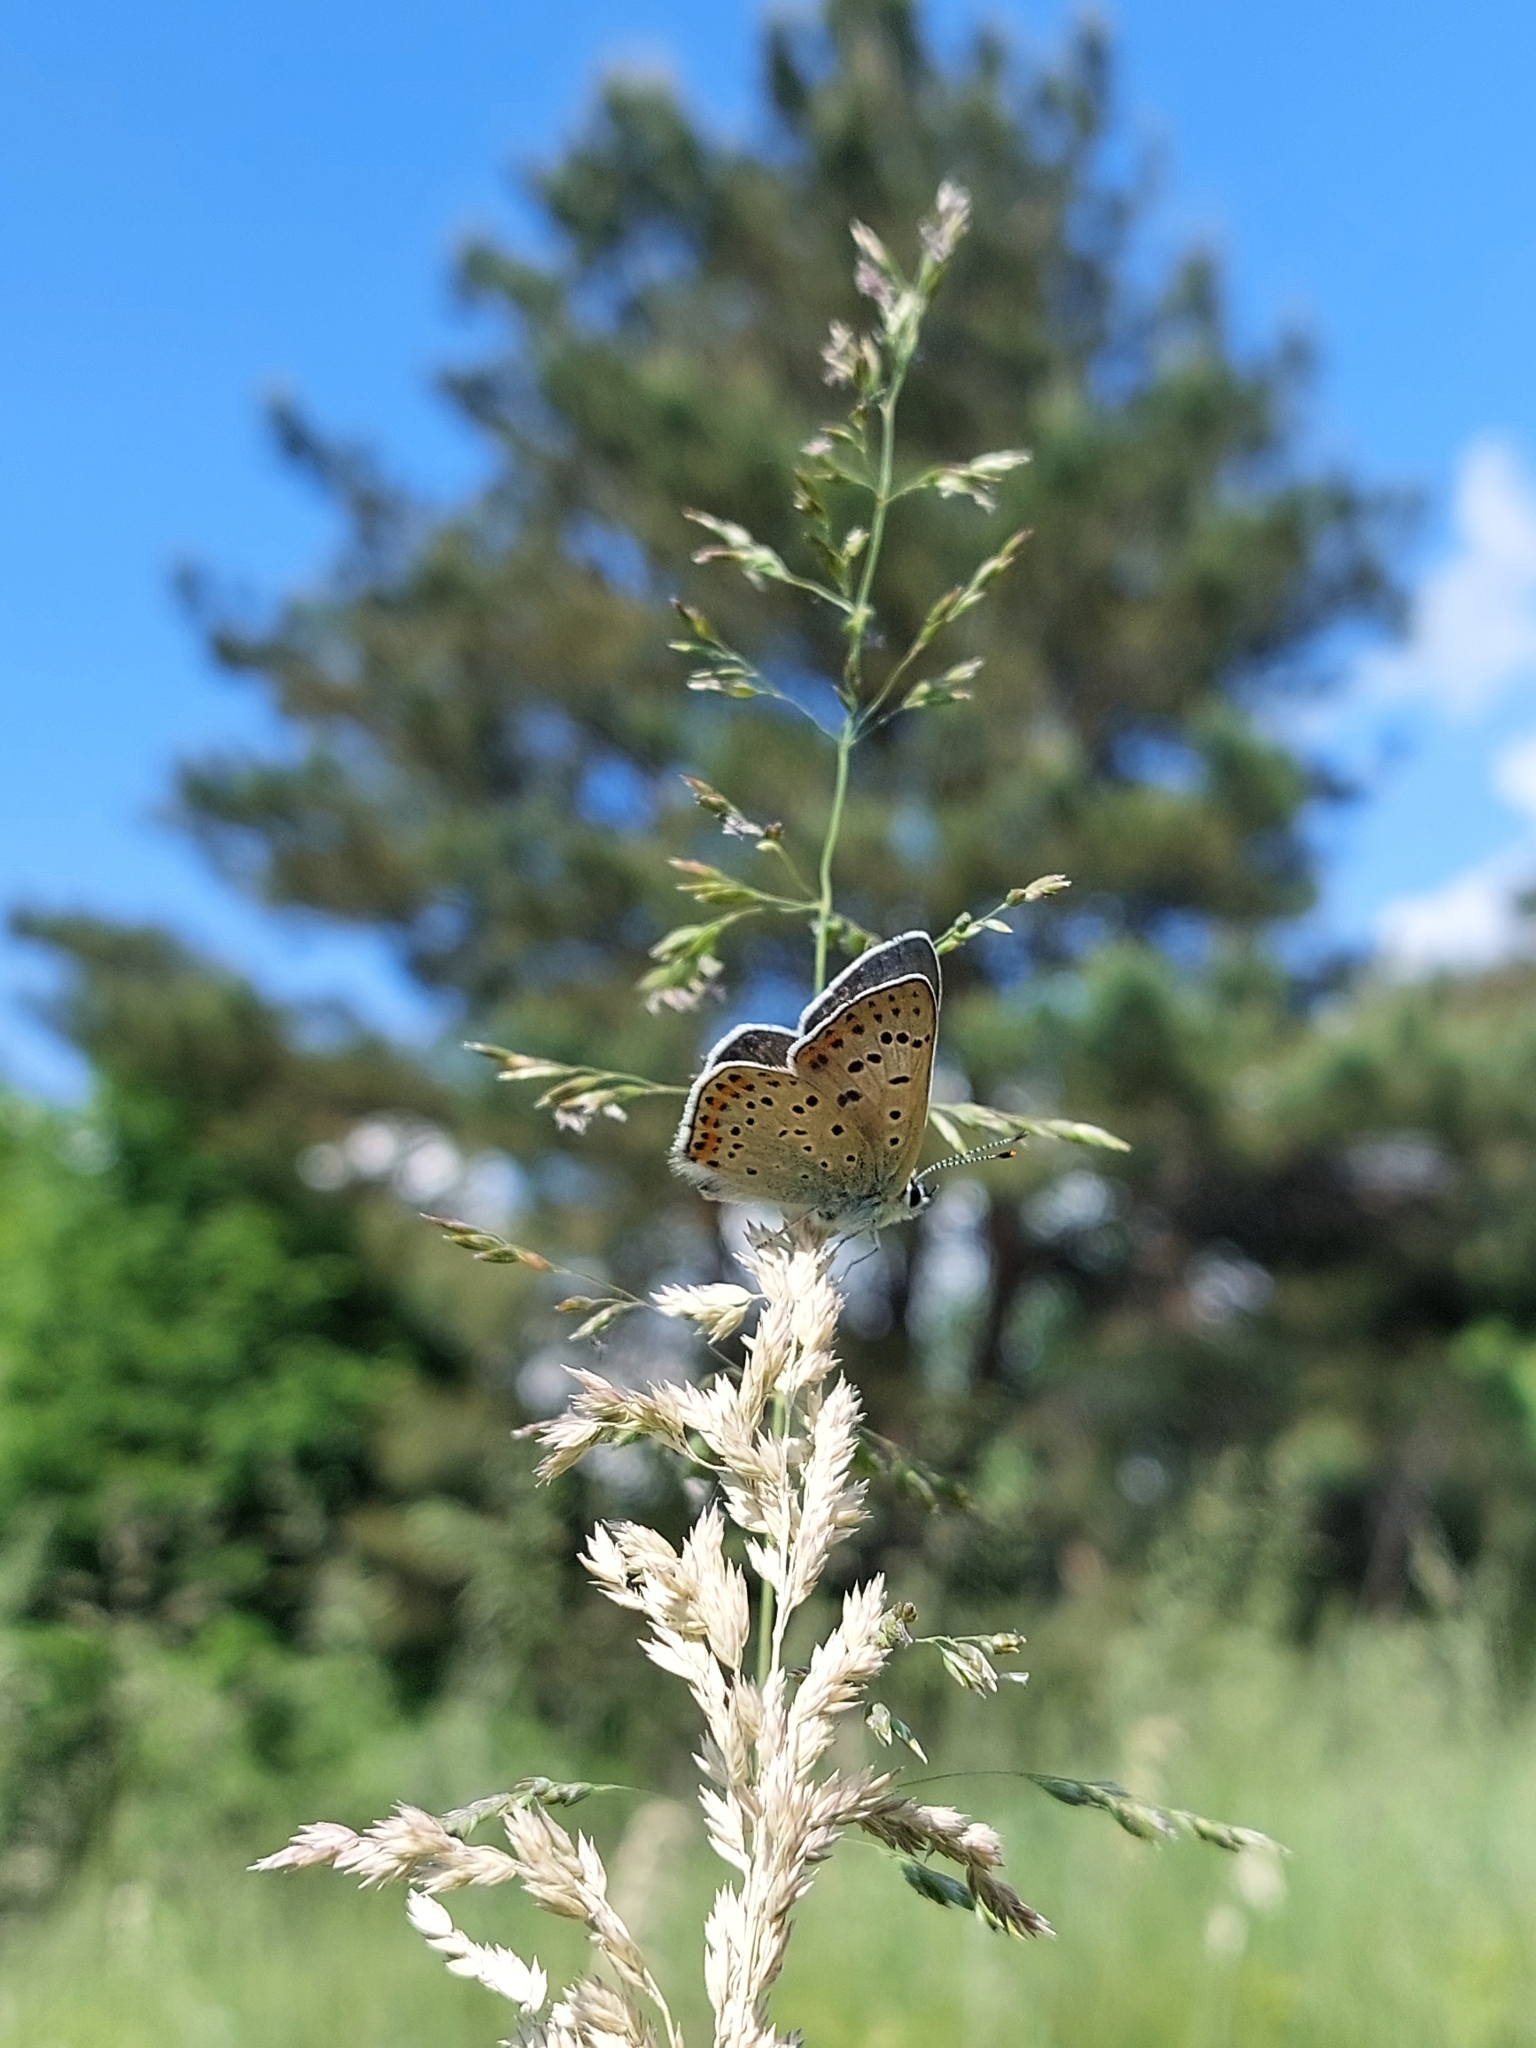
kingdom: Animalia
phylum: Arthropoda
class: Insecta
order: Lepidoptera
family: Lycaenidae
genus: Loweia
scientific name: Loweia tityrus
